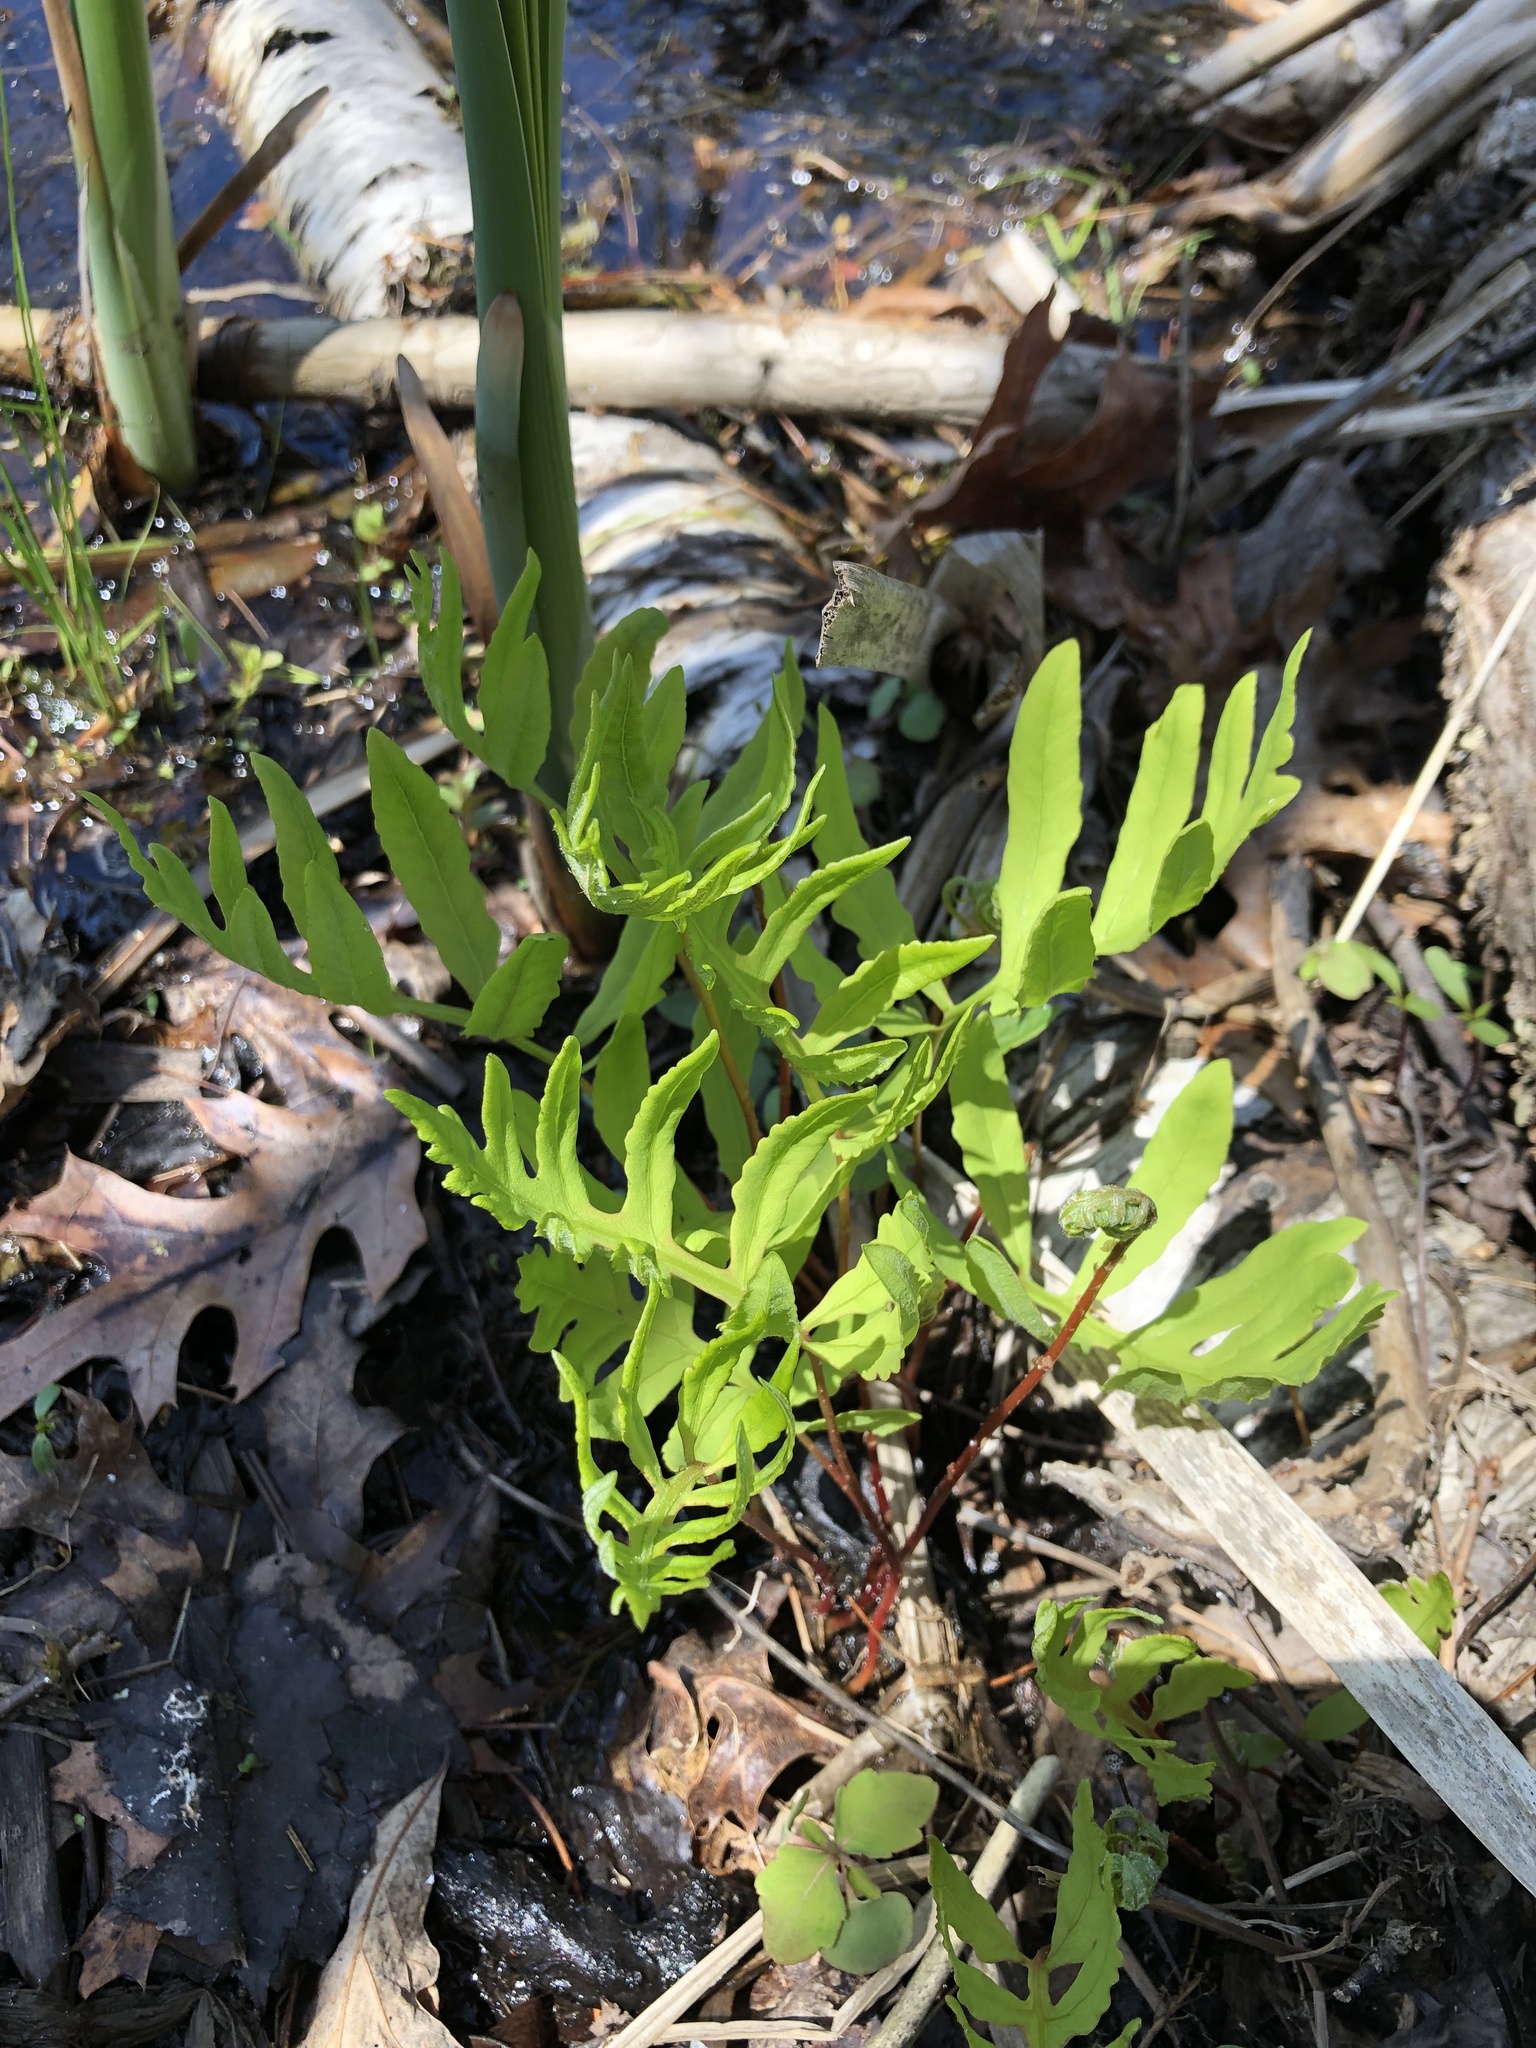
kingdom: Plantae
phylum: Tracheophyta
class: Polypodiopsida
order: Polypodiales
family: Onocleaceae
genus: Onoclea
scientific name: Onoclea sensibilis
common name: Sensitive fern
